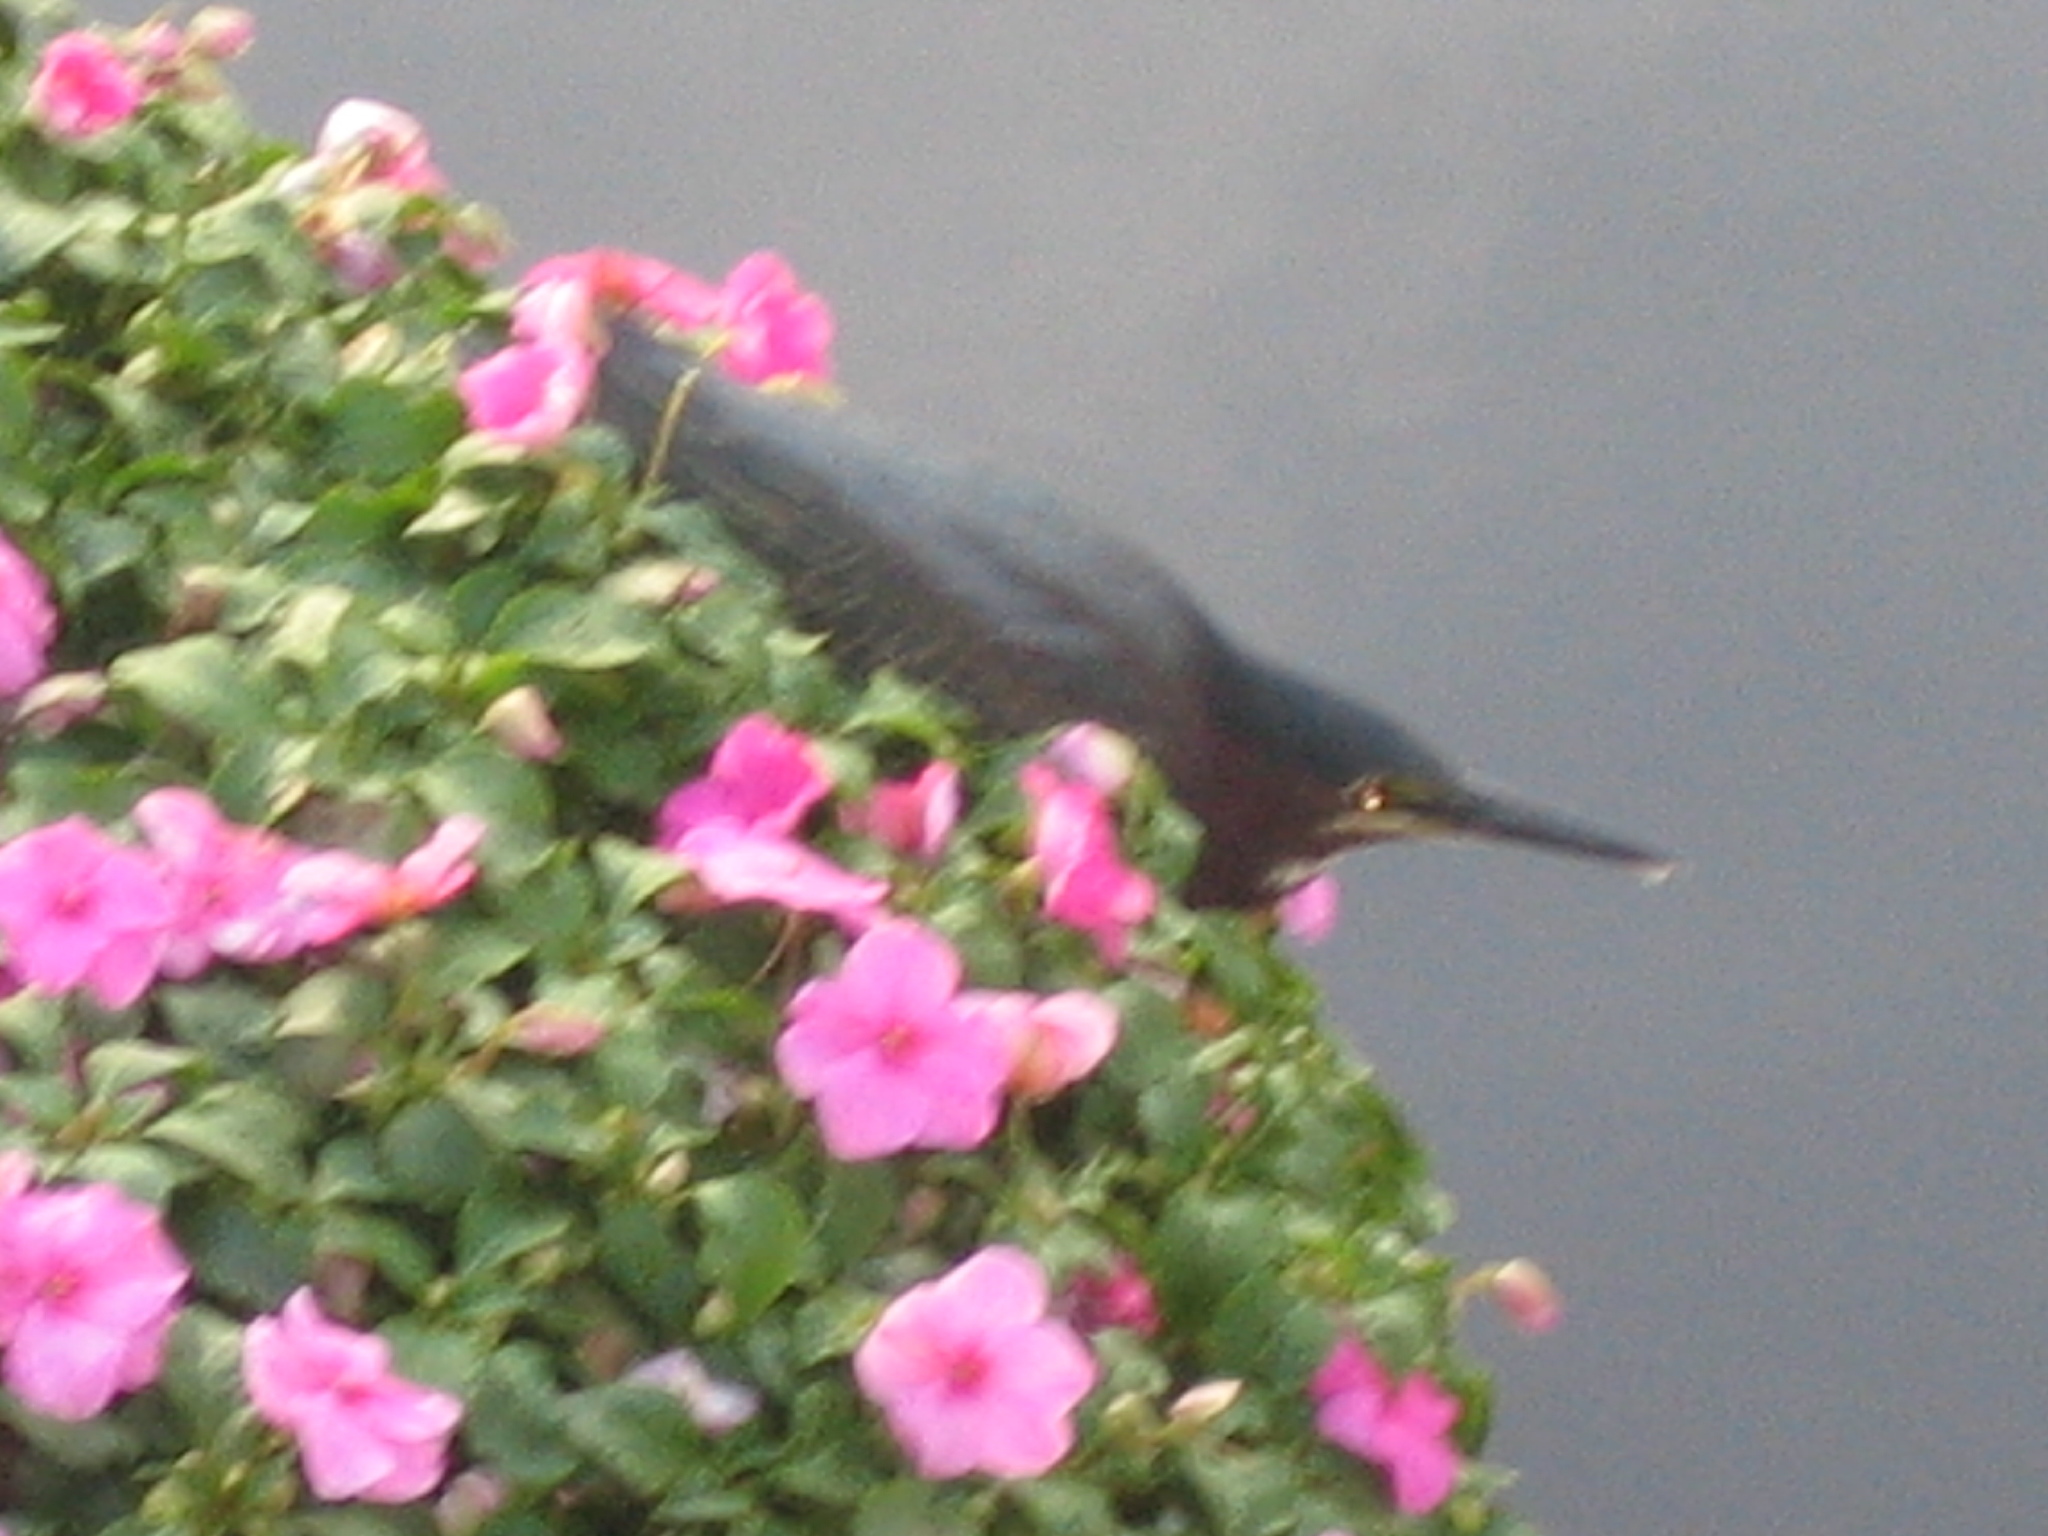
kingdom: Animalia
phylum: Chordata
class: Aves
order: Pelecaniformes
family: Ardeidae
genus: Butorides
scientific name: Butorides virescens
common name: Green heron
